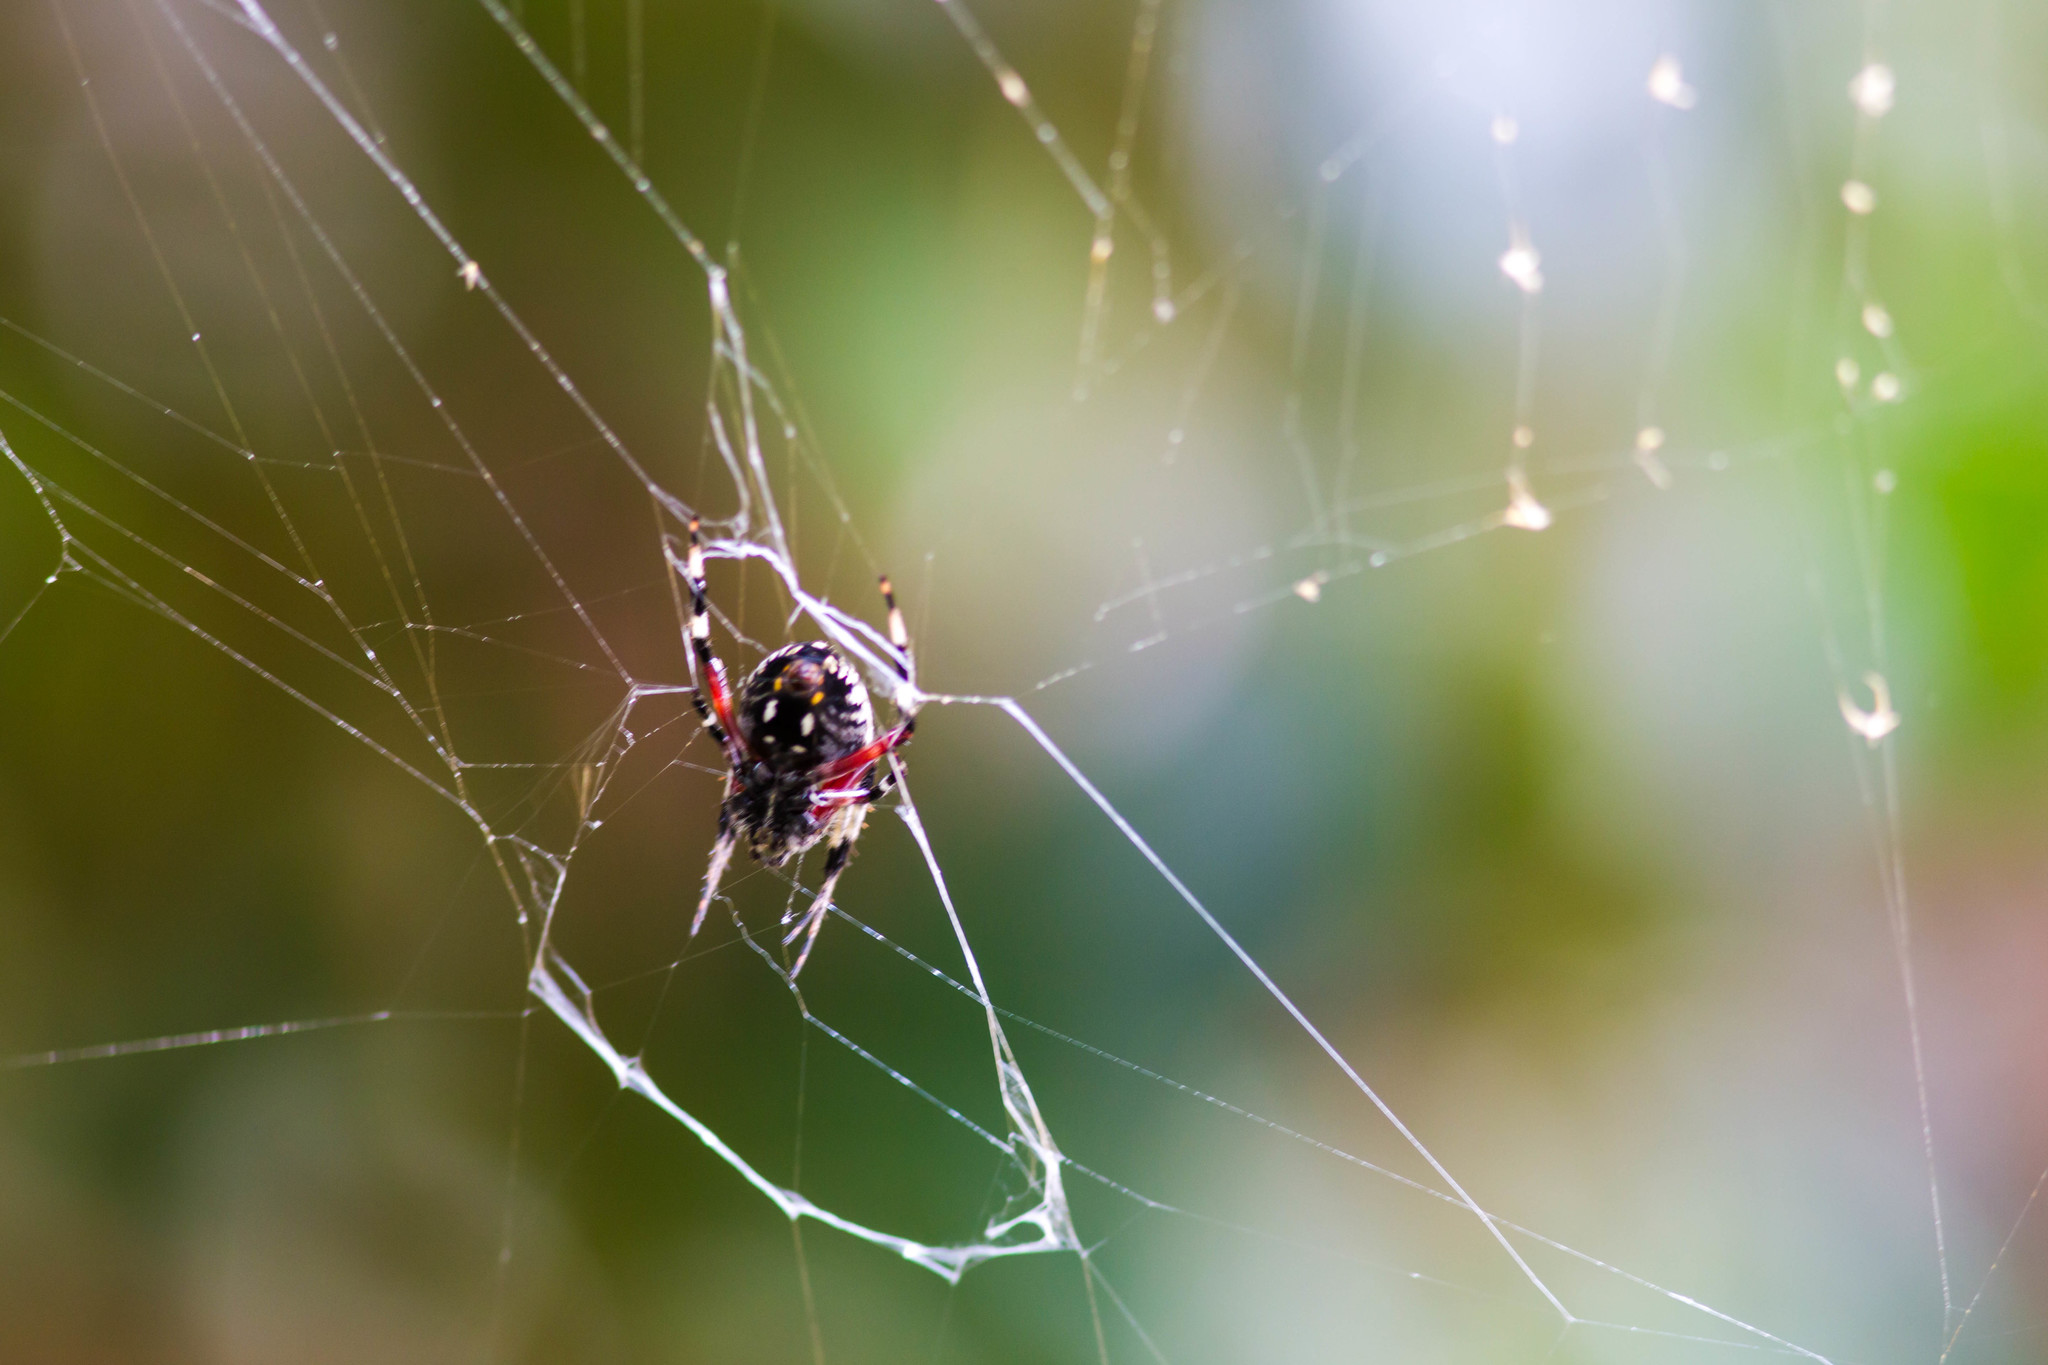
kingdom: Animalia
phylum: Arthropoda
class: Arachnida
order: Araneae
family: Araneidae
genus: Neoscona
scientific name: Neoscona domiciliorum
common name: Red-femured spotted orbweaver
